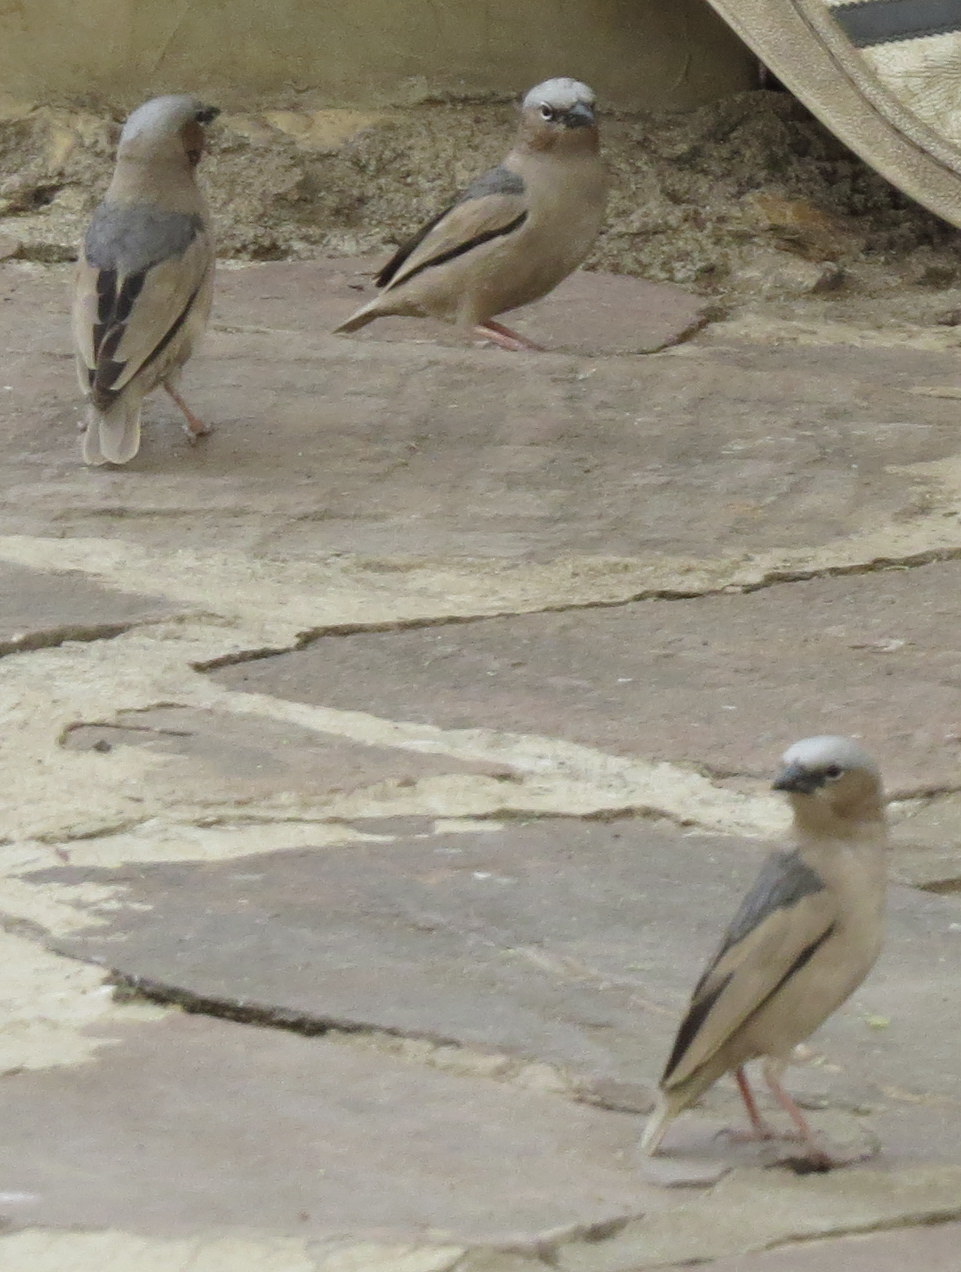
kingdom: Animalia
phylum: Chordata
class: Aves
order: Passeriformes
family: Passeridae
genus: Pseudonigrita
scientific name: Pseudonigrita arnaudi
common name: Grey-capped social weaver
